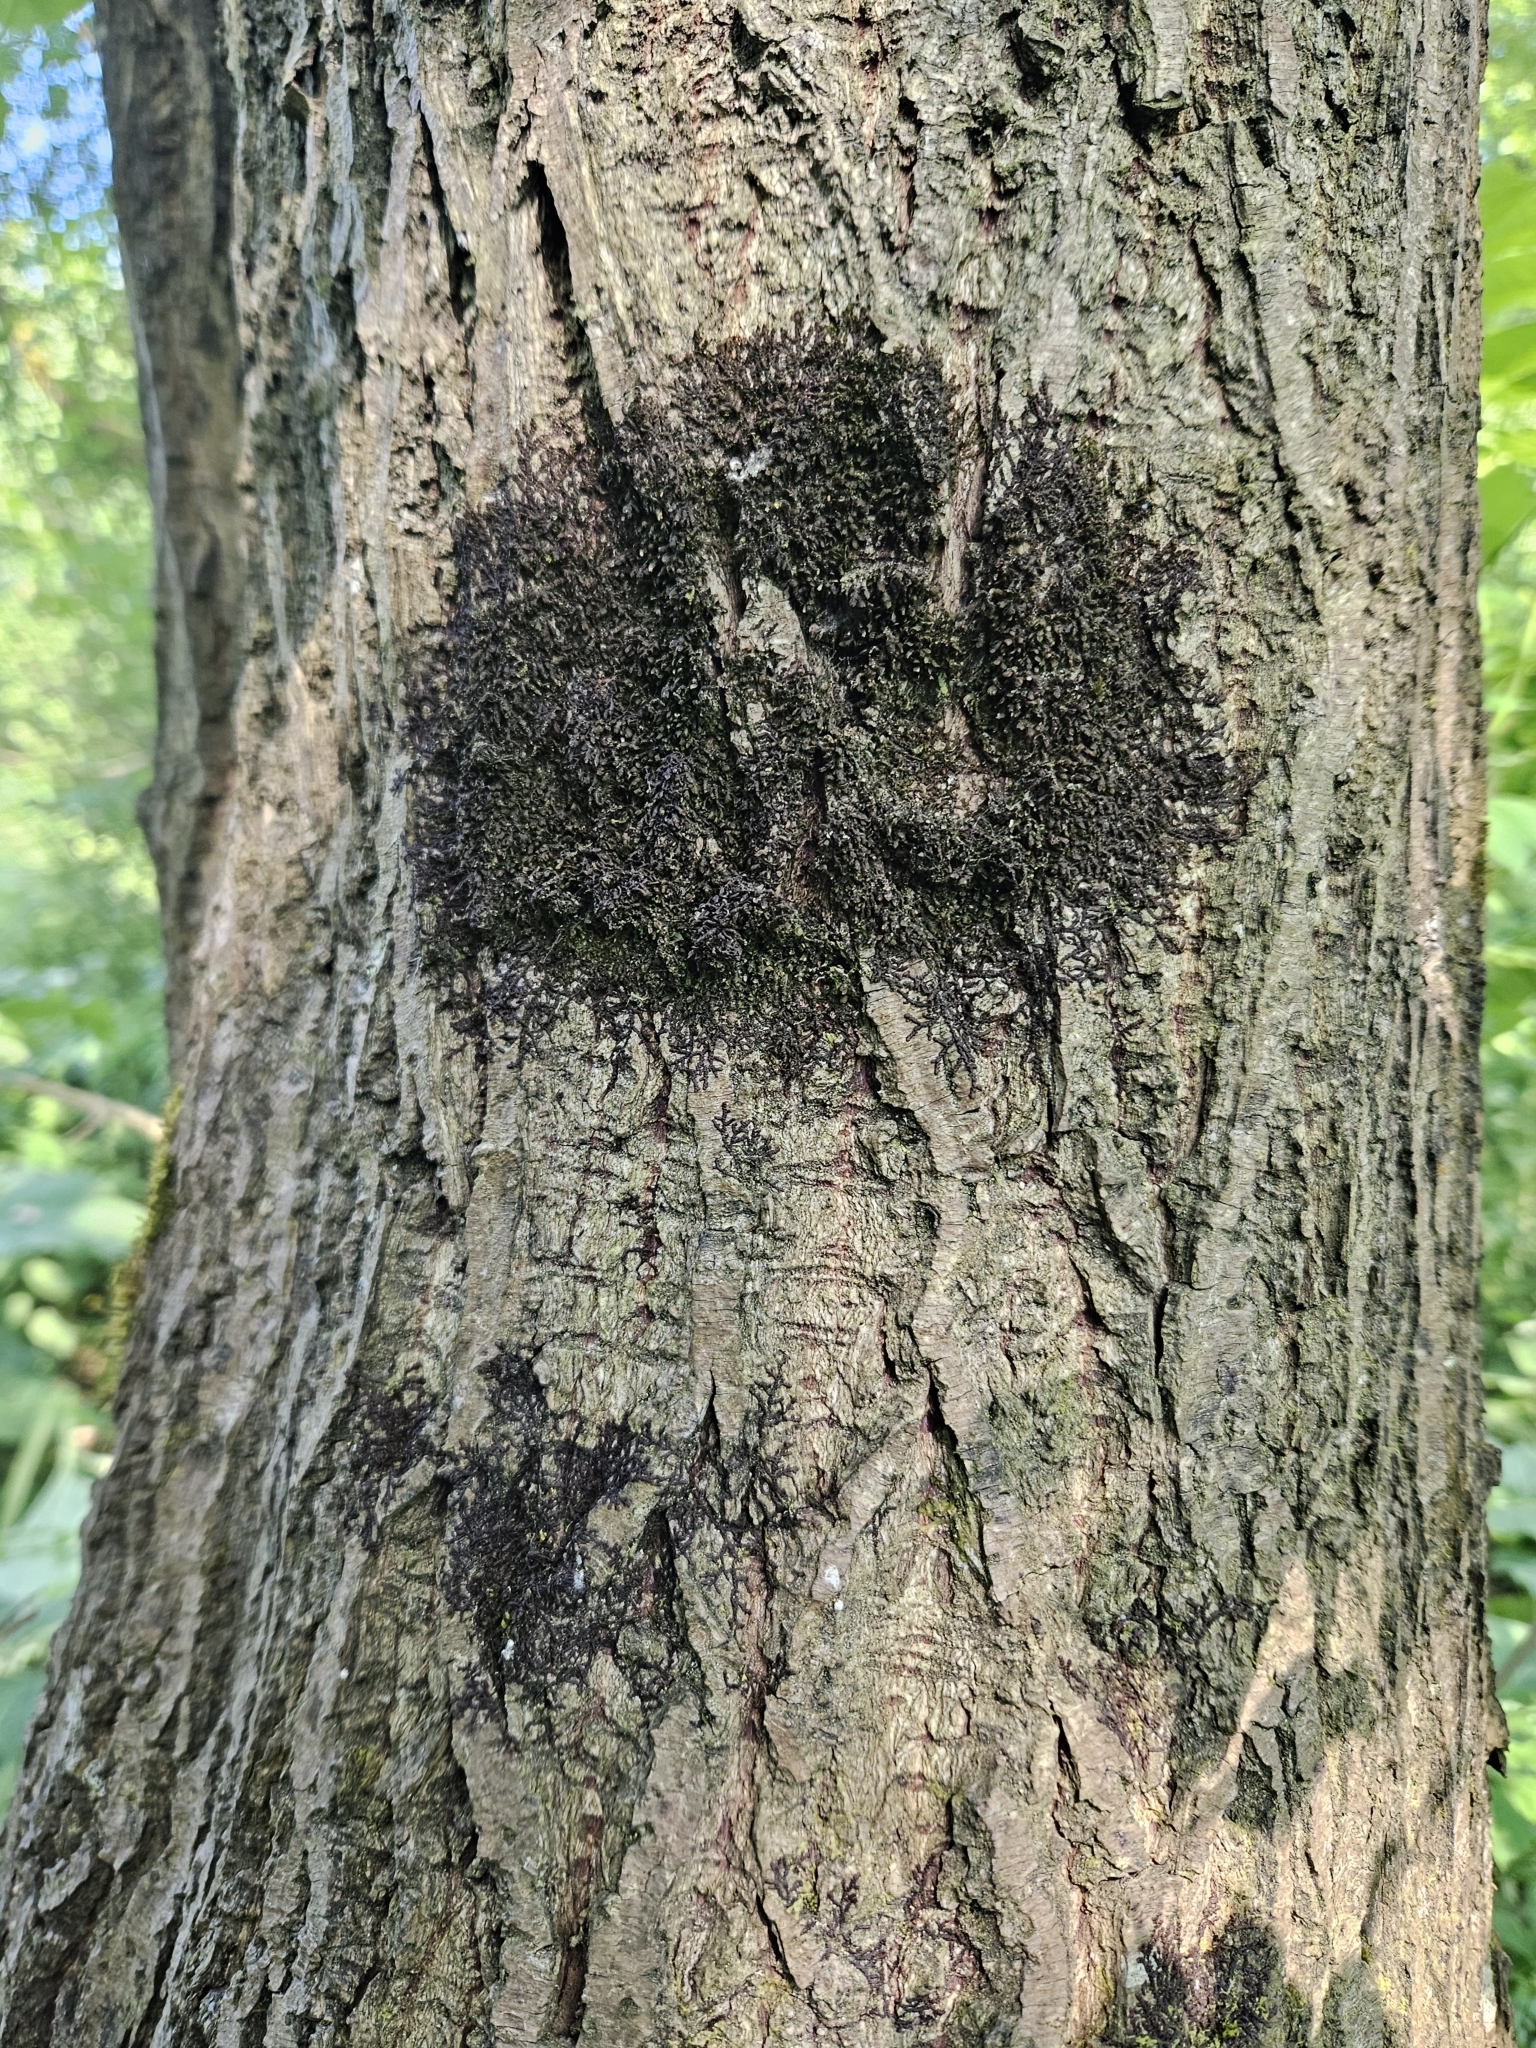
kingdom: Plantae
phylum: Marchantiophyta
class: Jungermanniopsida
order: Porellales
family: Frullaniaceae
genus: Frullania
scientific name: Frullania dilatata
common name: Dilated scalewort
